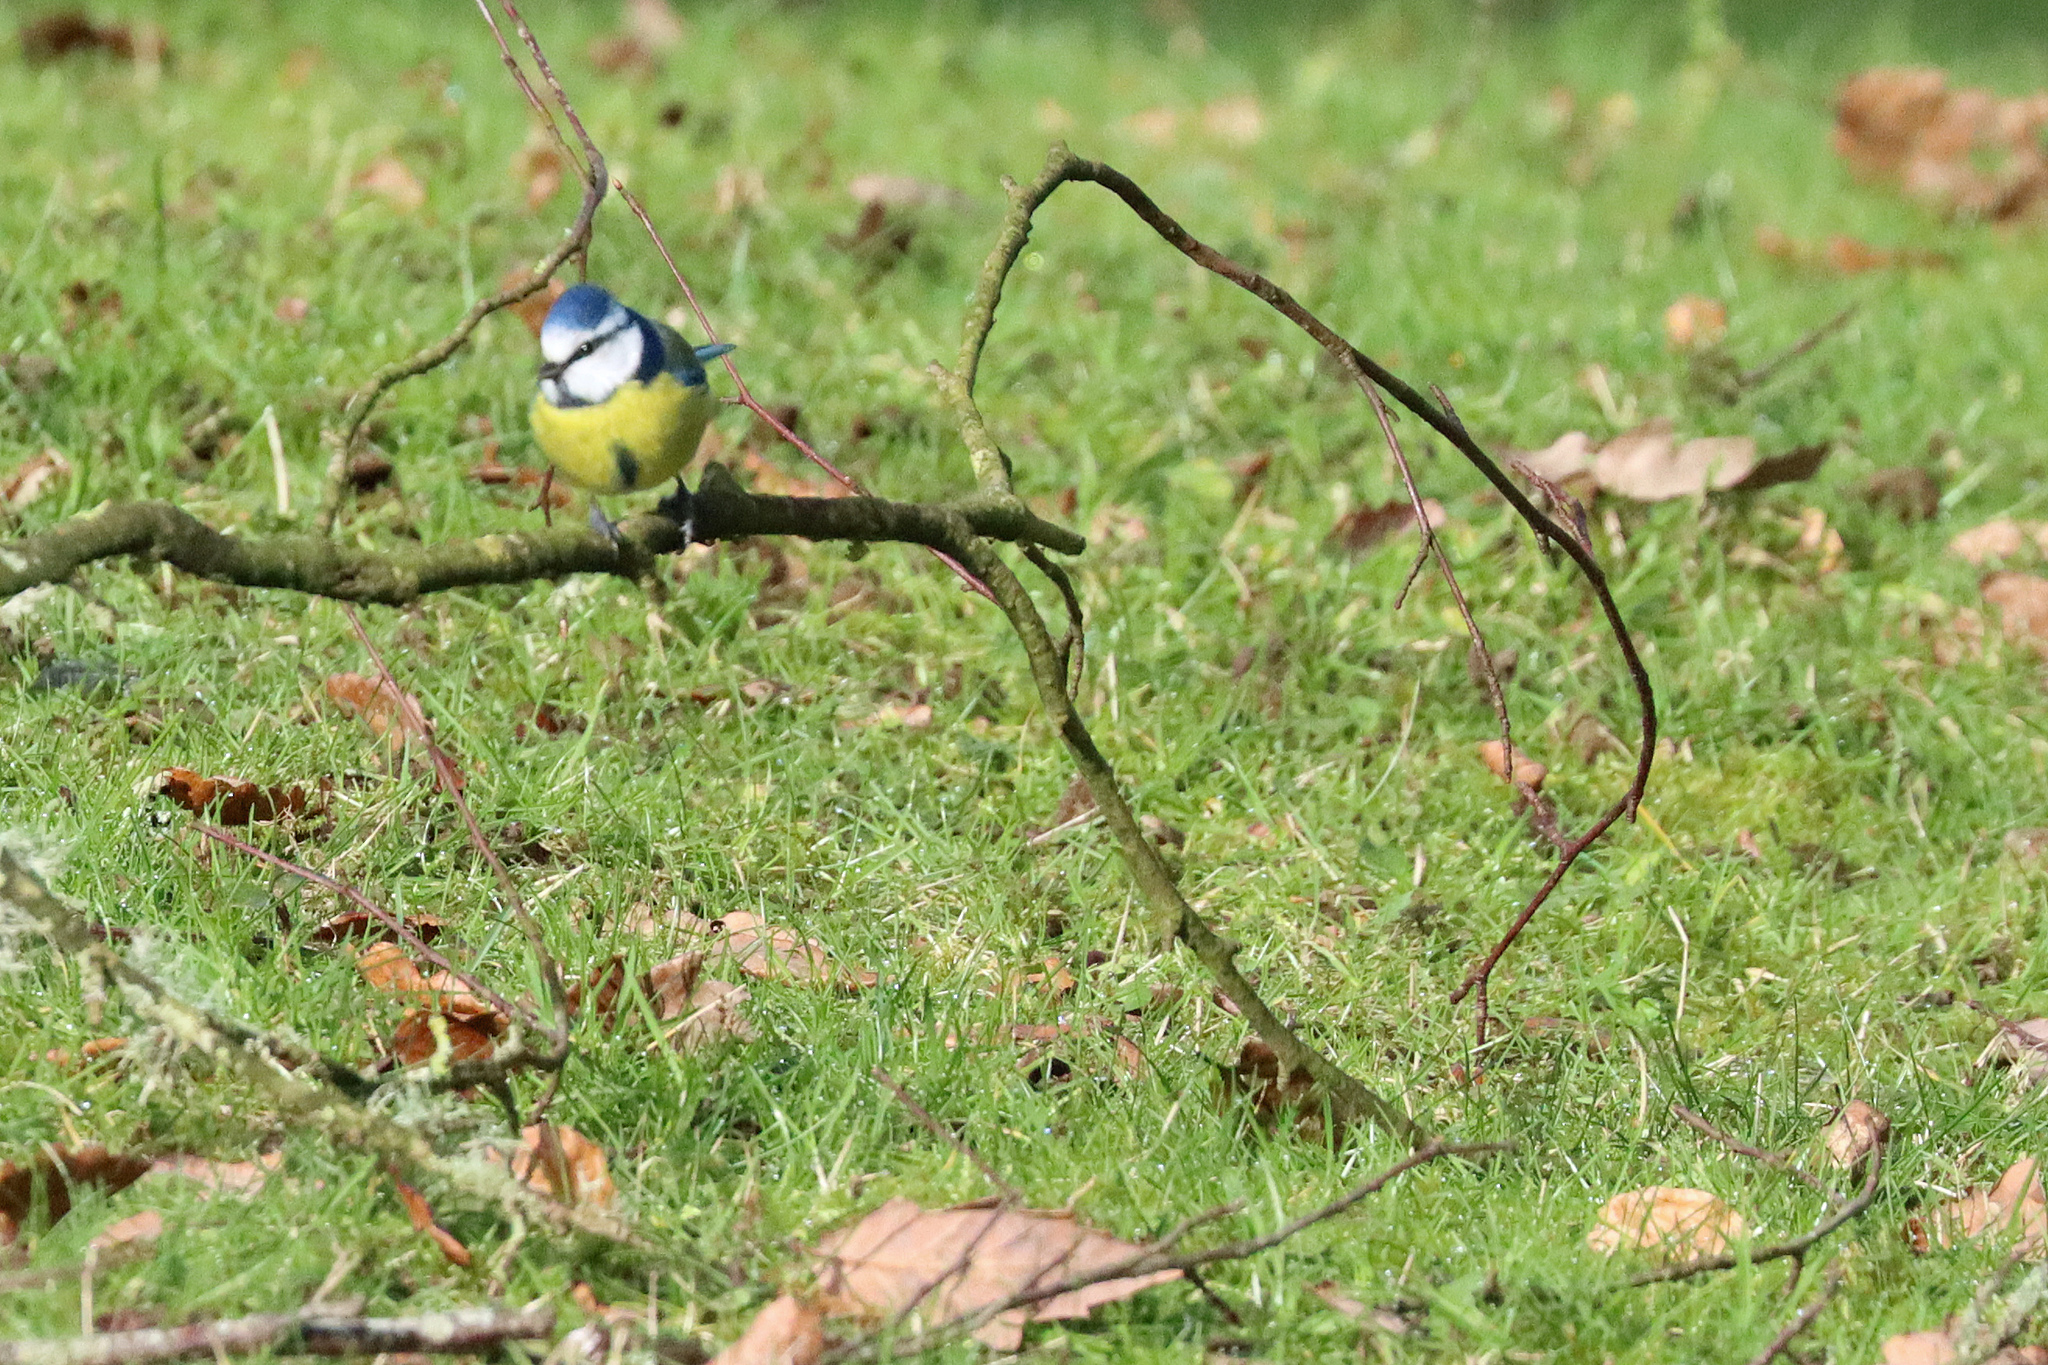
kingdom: Animalia
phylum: Chordata
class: Aves
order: Passeriformes
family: Paridae
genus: Cyanistes
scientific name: Cyanistes caeruleus
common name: Eurasian blue tit
